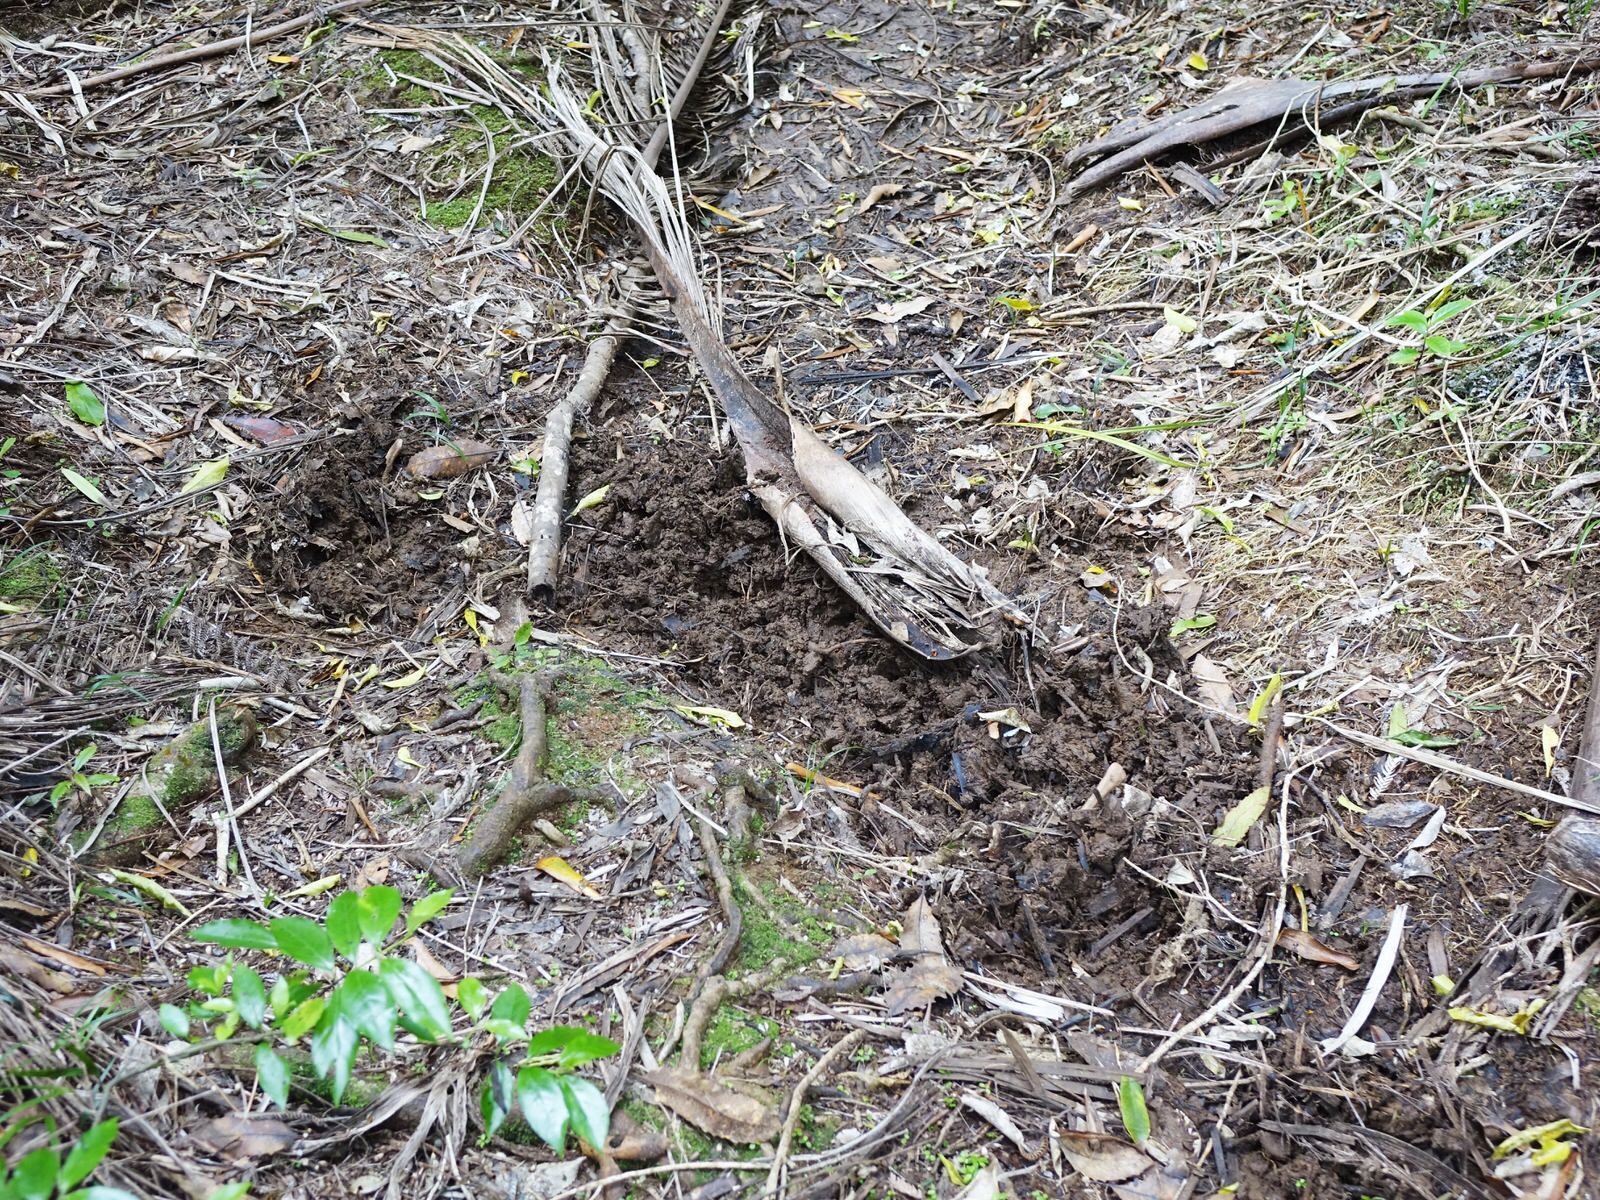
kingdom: Animalia
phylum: Chordata
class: Mammalia
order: Artiodactyla
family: Suidae
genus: Sus
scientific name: Sus scrofa
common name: Wild boar
